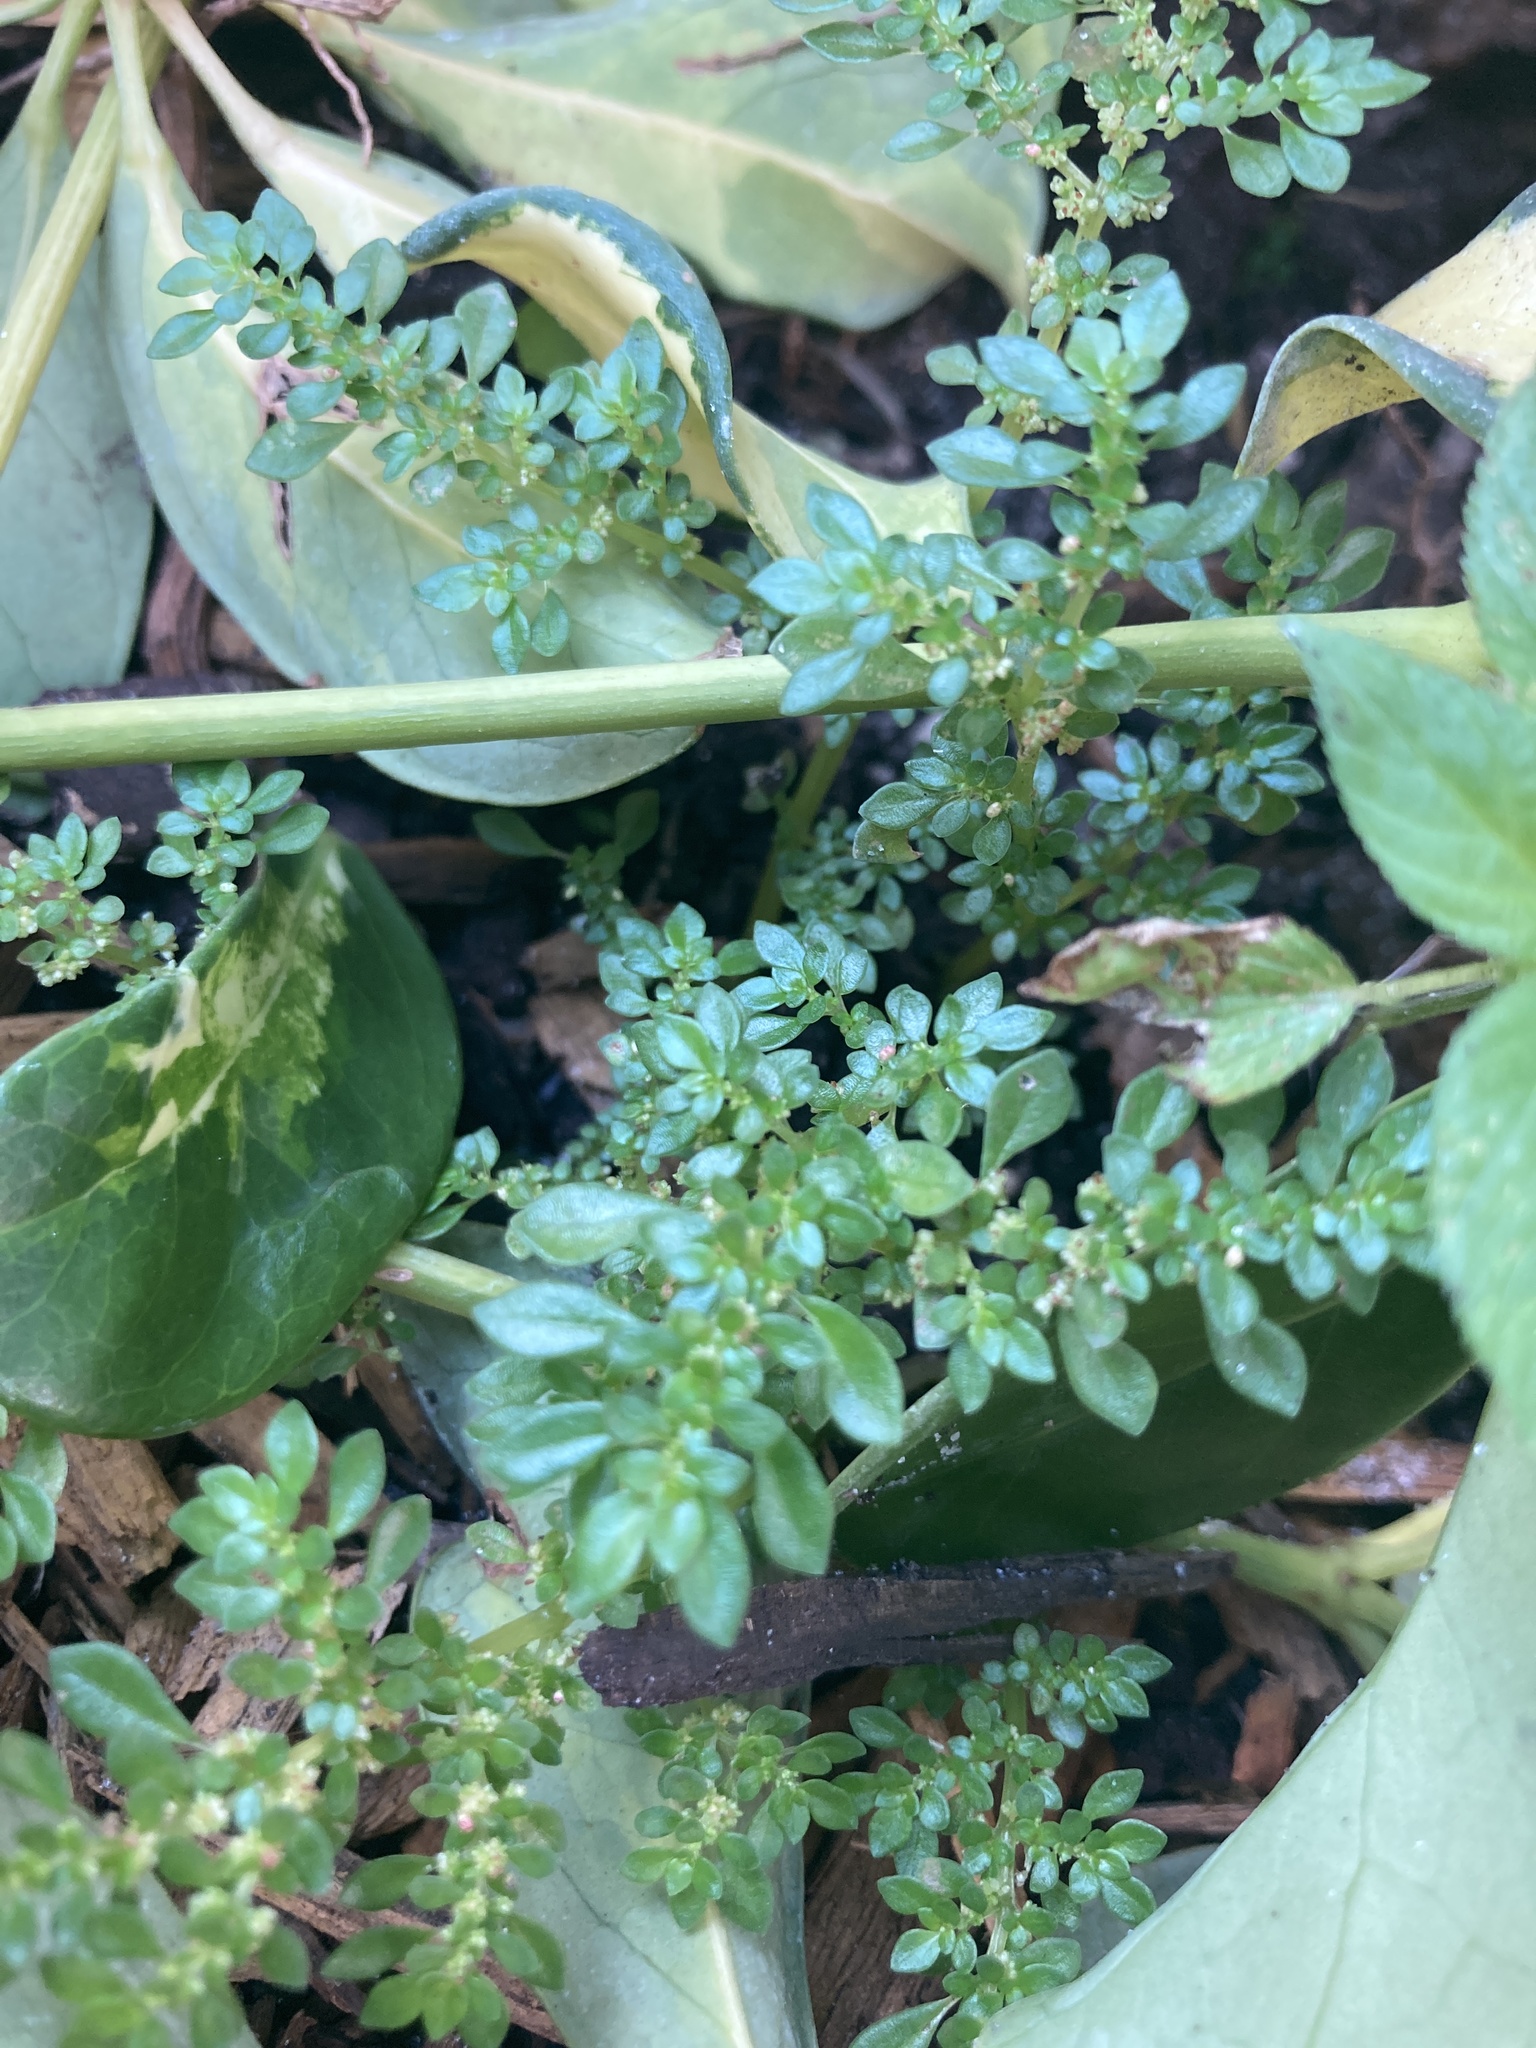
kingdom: Plantae
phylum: Tracheophyta
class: Magnoliopsida
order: Rosales
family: Urticaceae
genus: Pilea
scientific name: Pilea microphylla
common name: Artillery-plant
